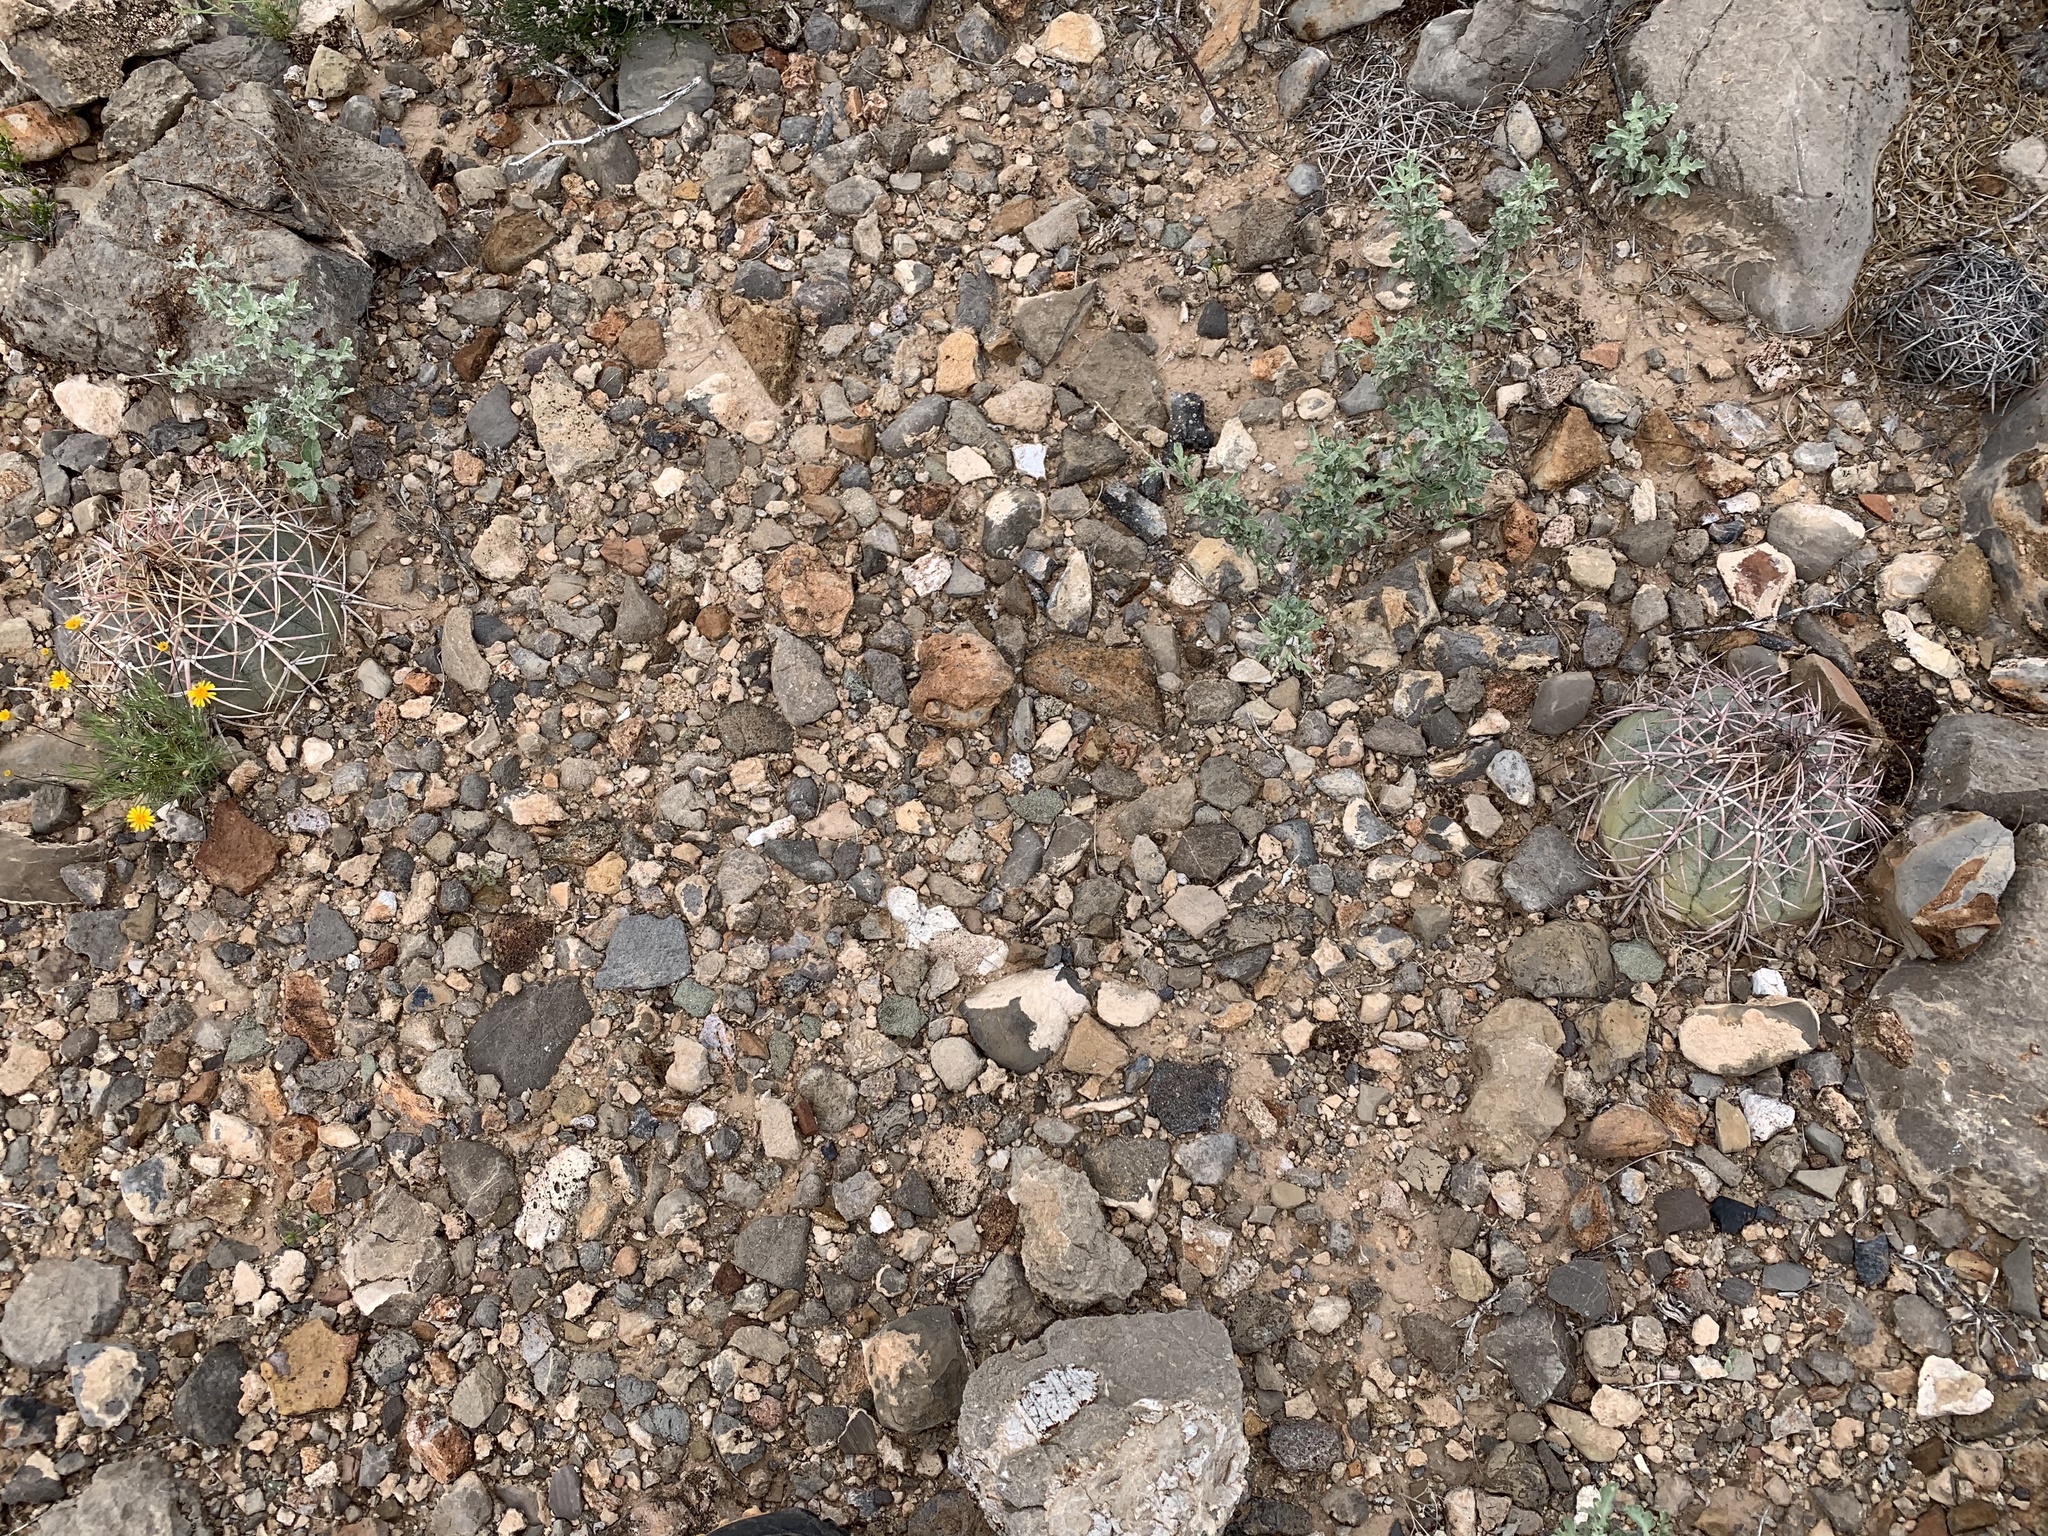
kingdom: Plantae
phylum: Tracheophyta
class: Magnoliopsida
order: Caryophyllales
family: Cactaceae
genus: Echinocactus
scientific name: Echinocactus horizonthalonius
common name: Devilshead
